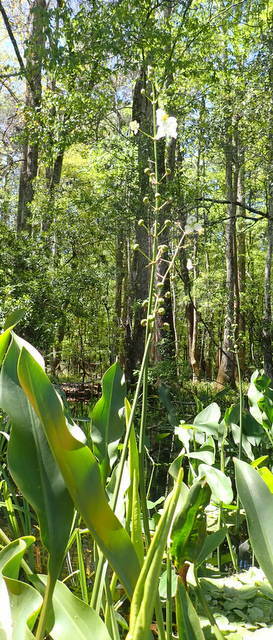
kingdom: Plantae
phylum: Tracheophyta
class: Liliopsida
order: Alismatales
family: Alismataceae
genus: Sagittaria
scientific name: Sagittaria lancifolia
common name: Lance-leaf arrowhead
